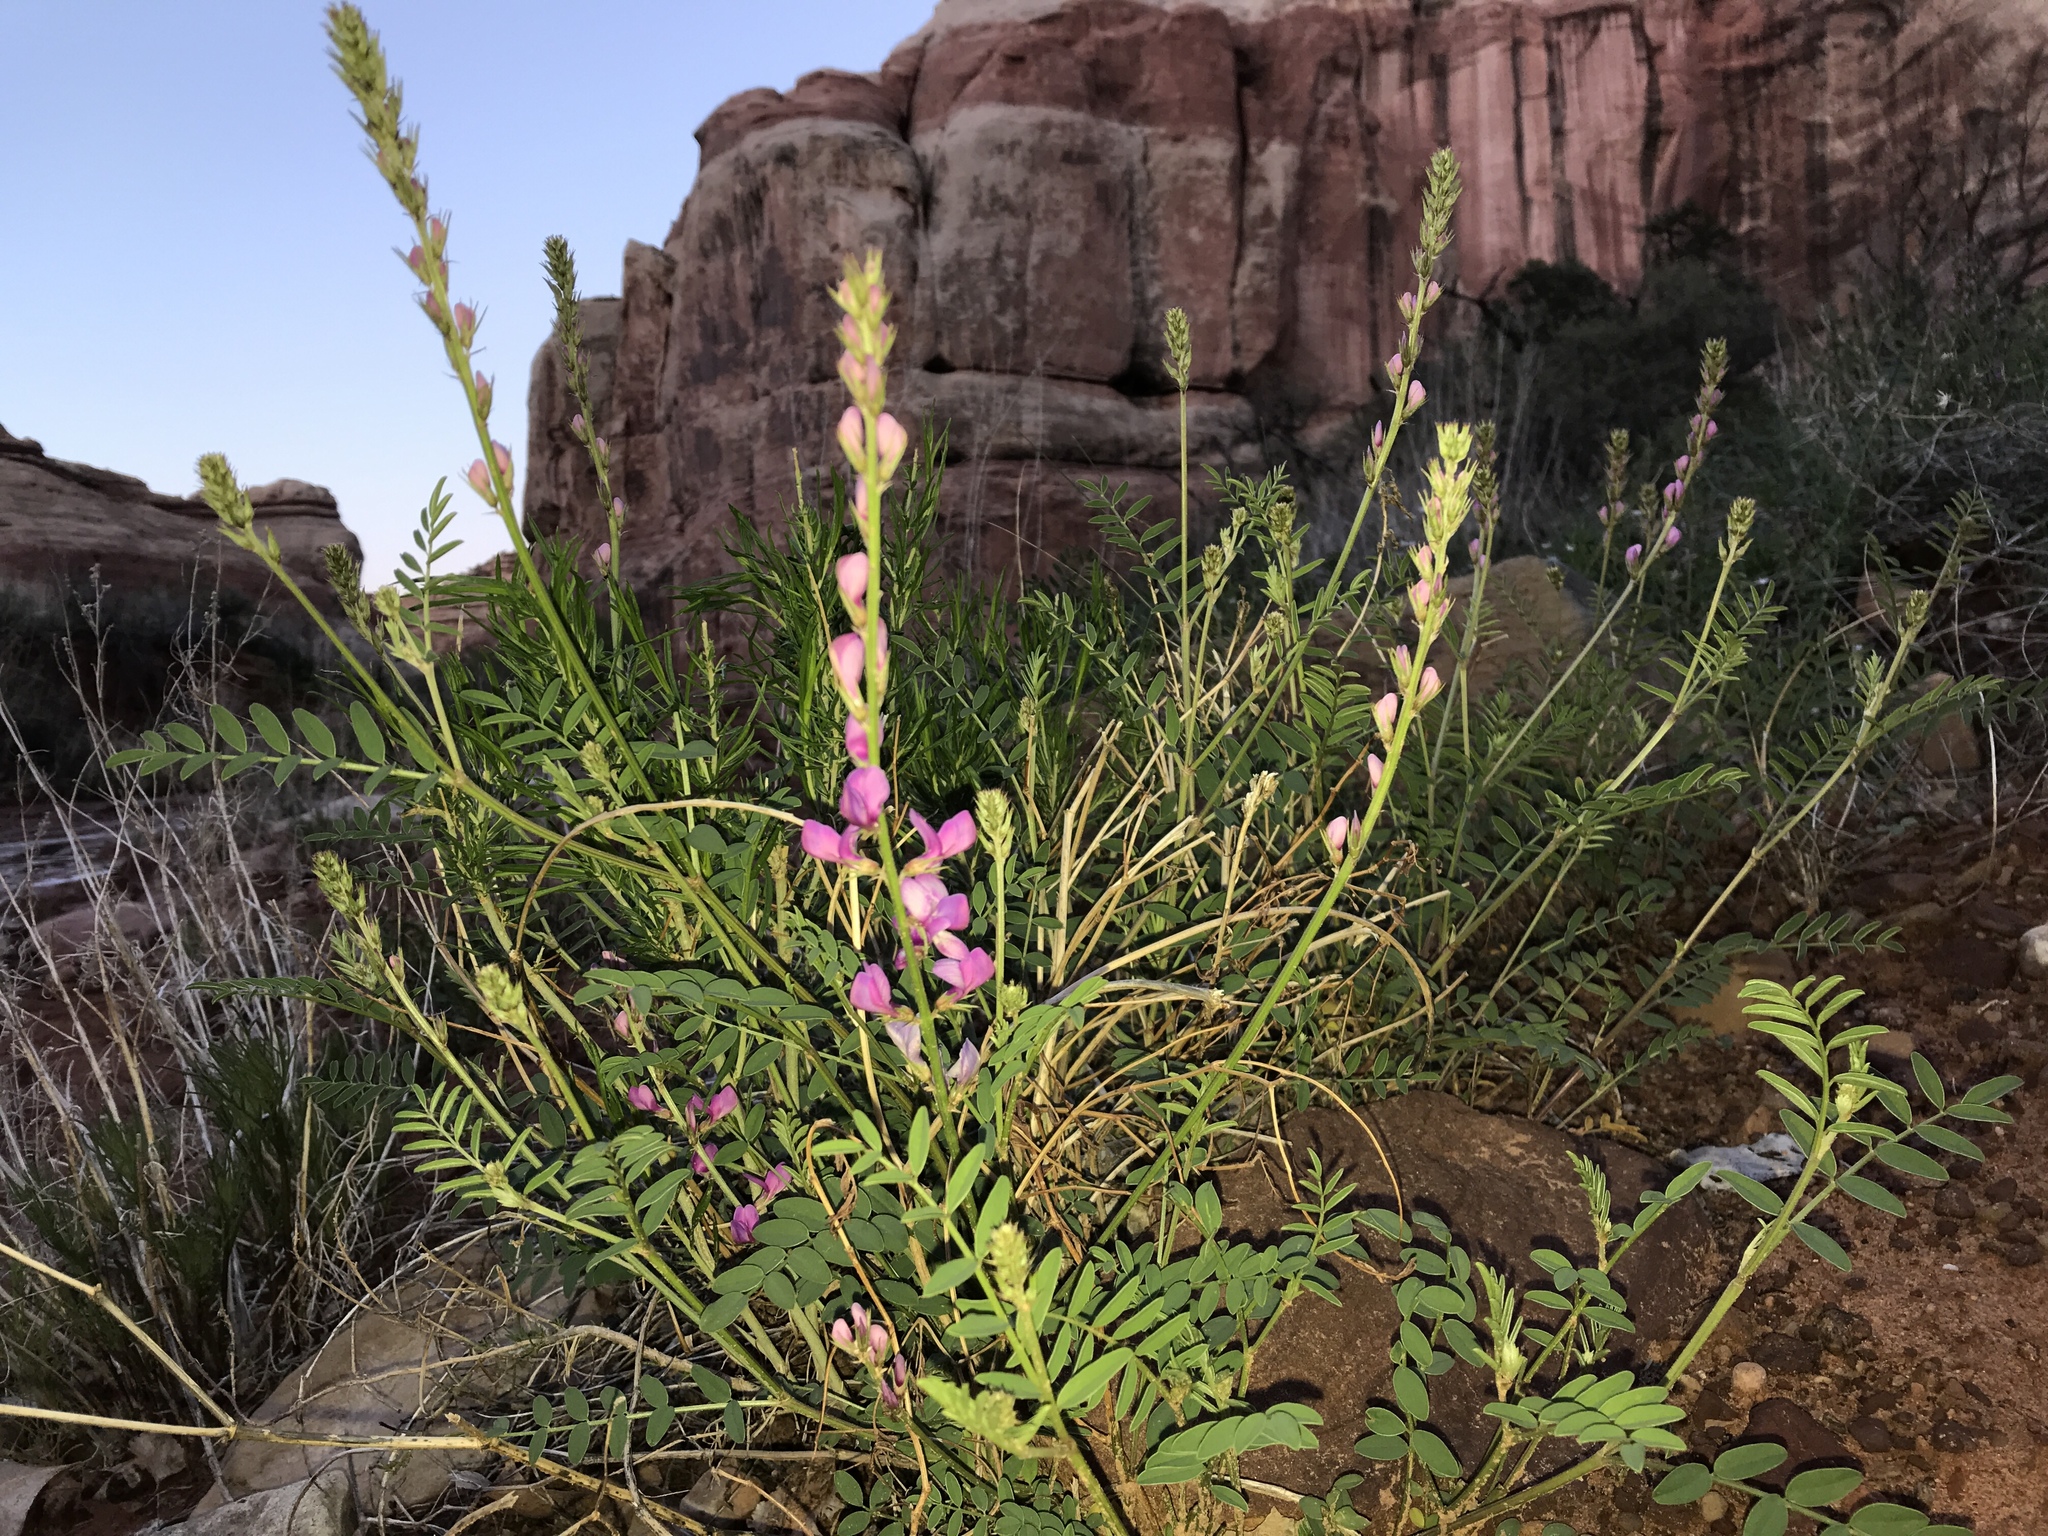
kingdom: Plantae
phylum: Tracheophyta
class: Magnoliopsida
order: Fabales
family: Fabaceae
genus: Hedysarum
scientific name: Hedysarum boreale
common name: Northern sweet-vetch
